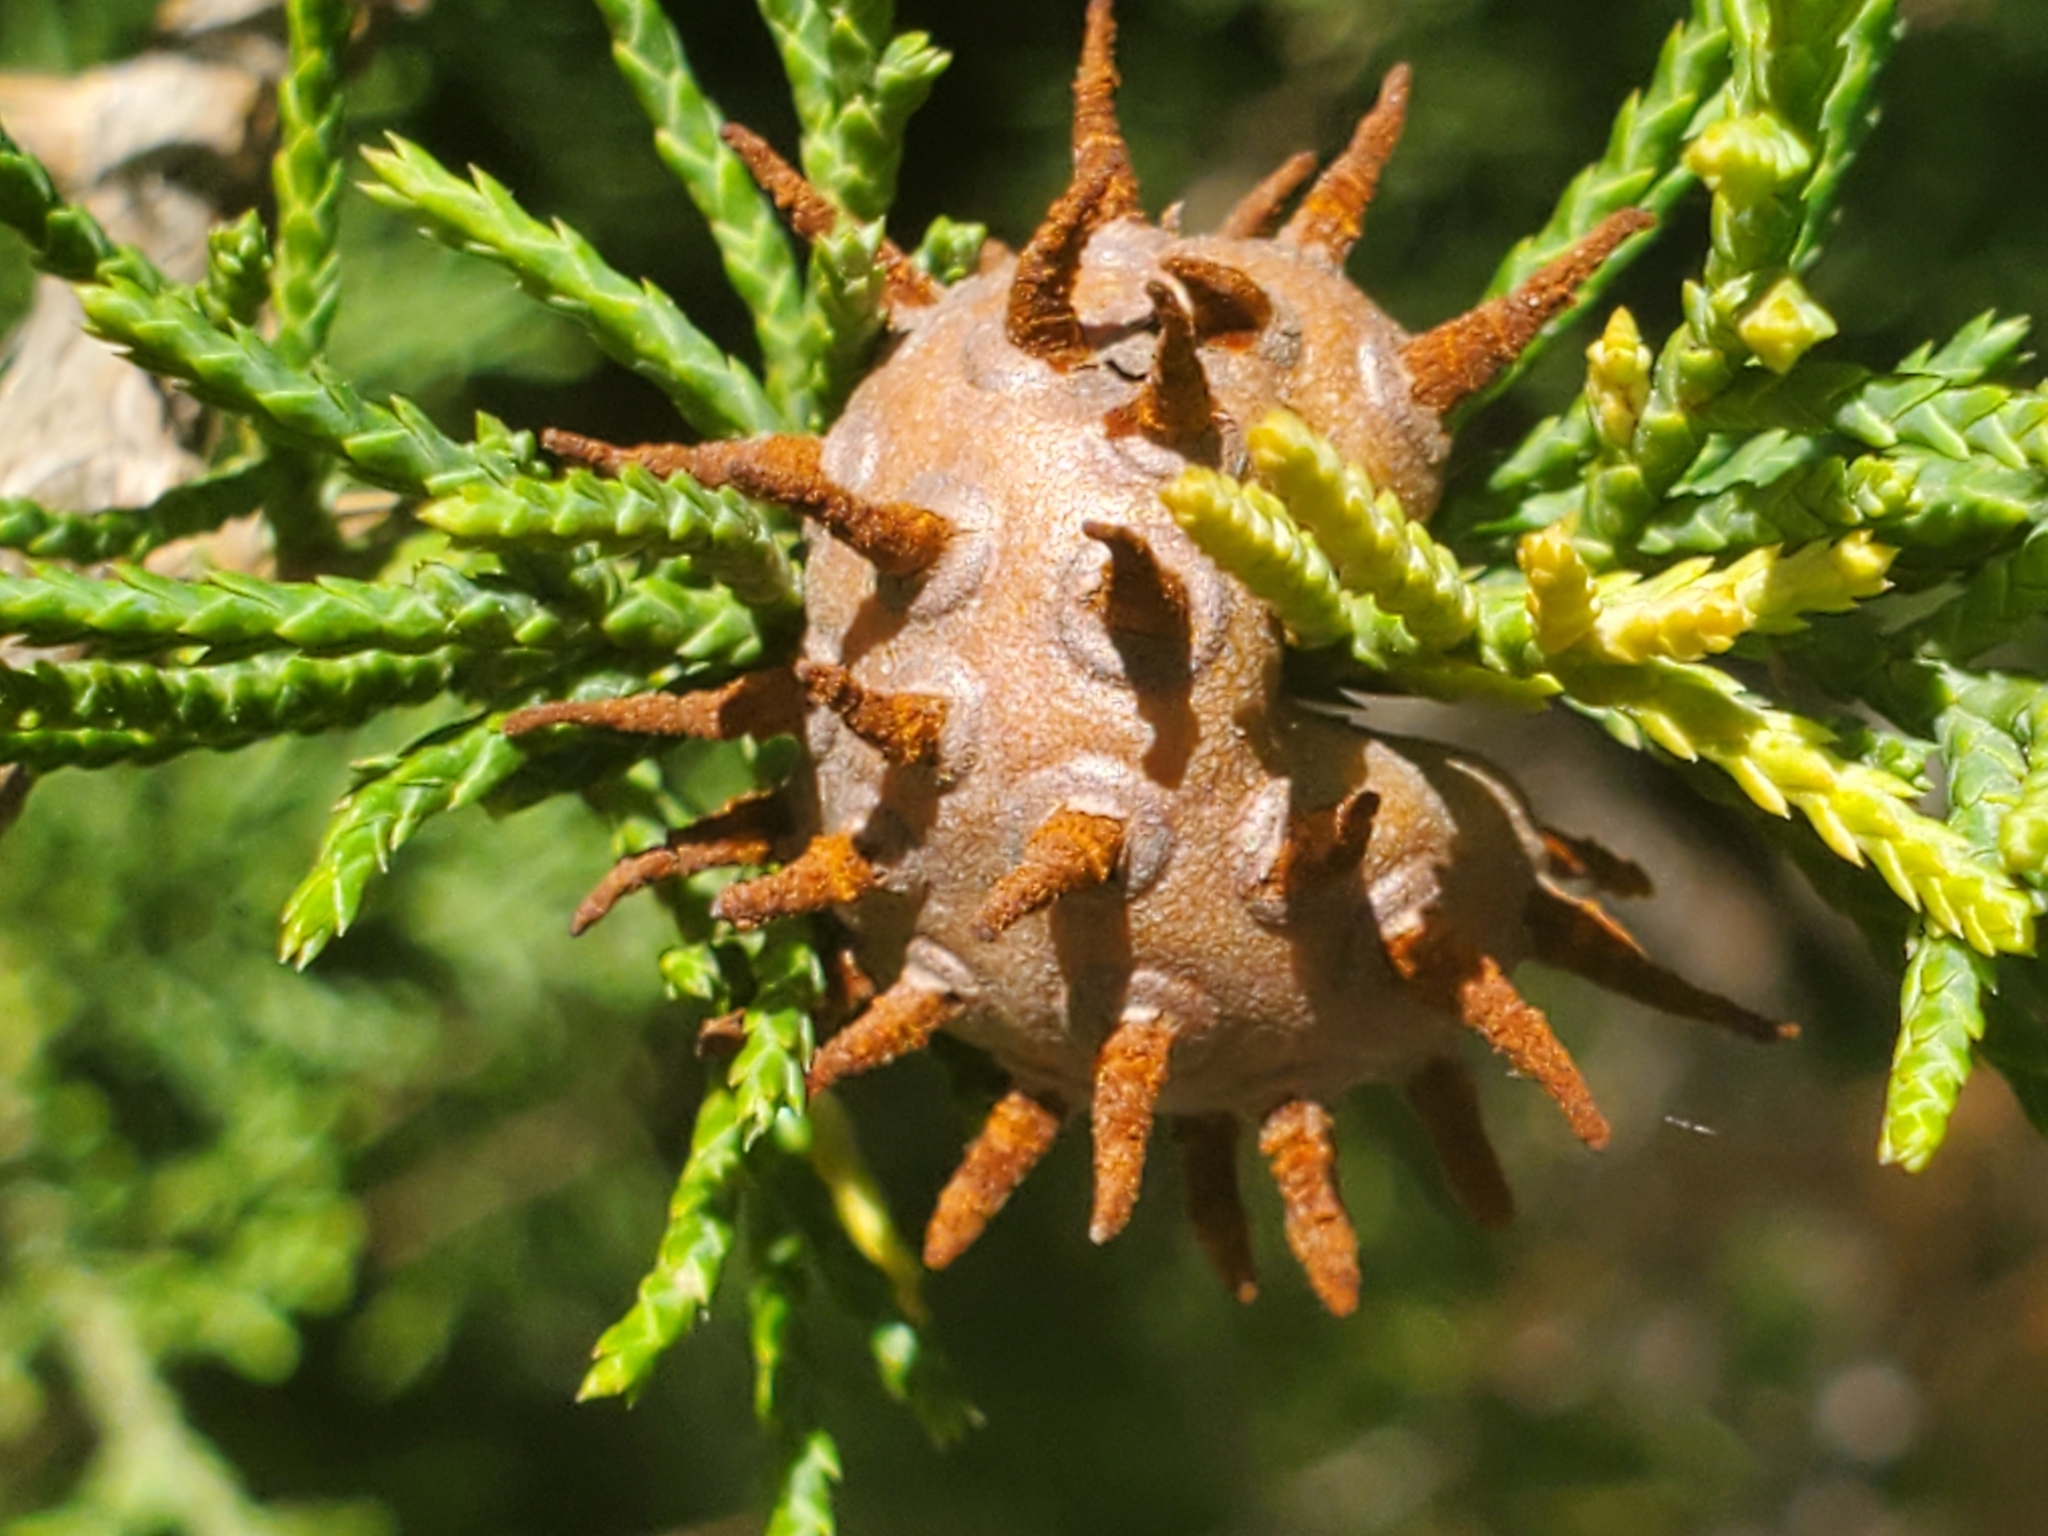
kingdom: Fungi
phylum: Basidiomycota
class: Pucciniomycetes
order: Pucciniales
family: Gymnosporangiaceae
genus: Gymnosporangium
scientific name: Gymnosporangium juniperi-virginianae
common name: Juniper-apple rust
